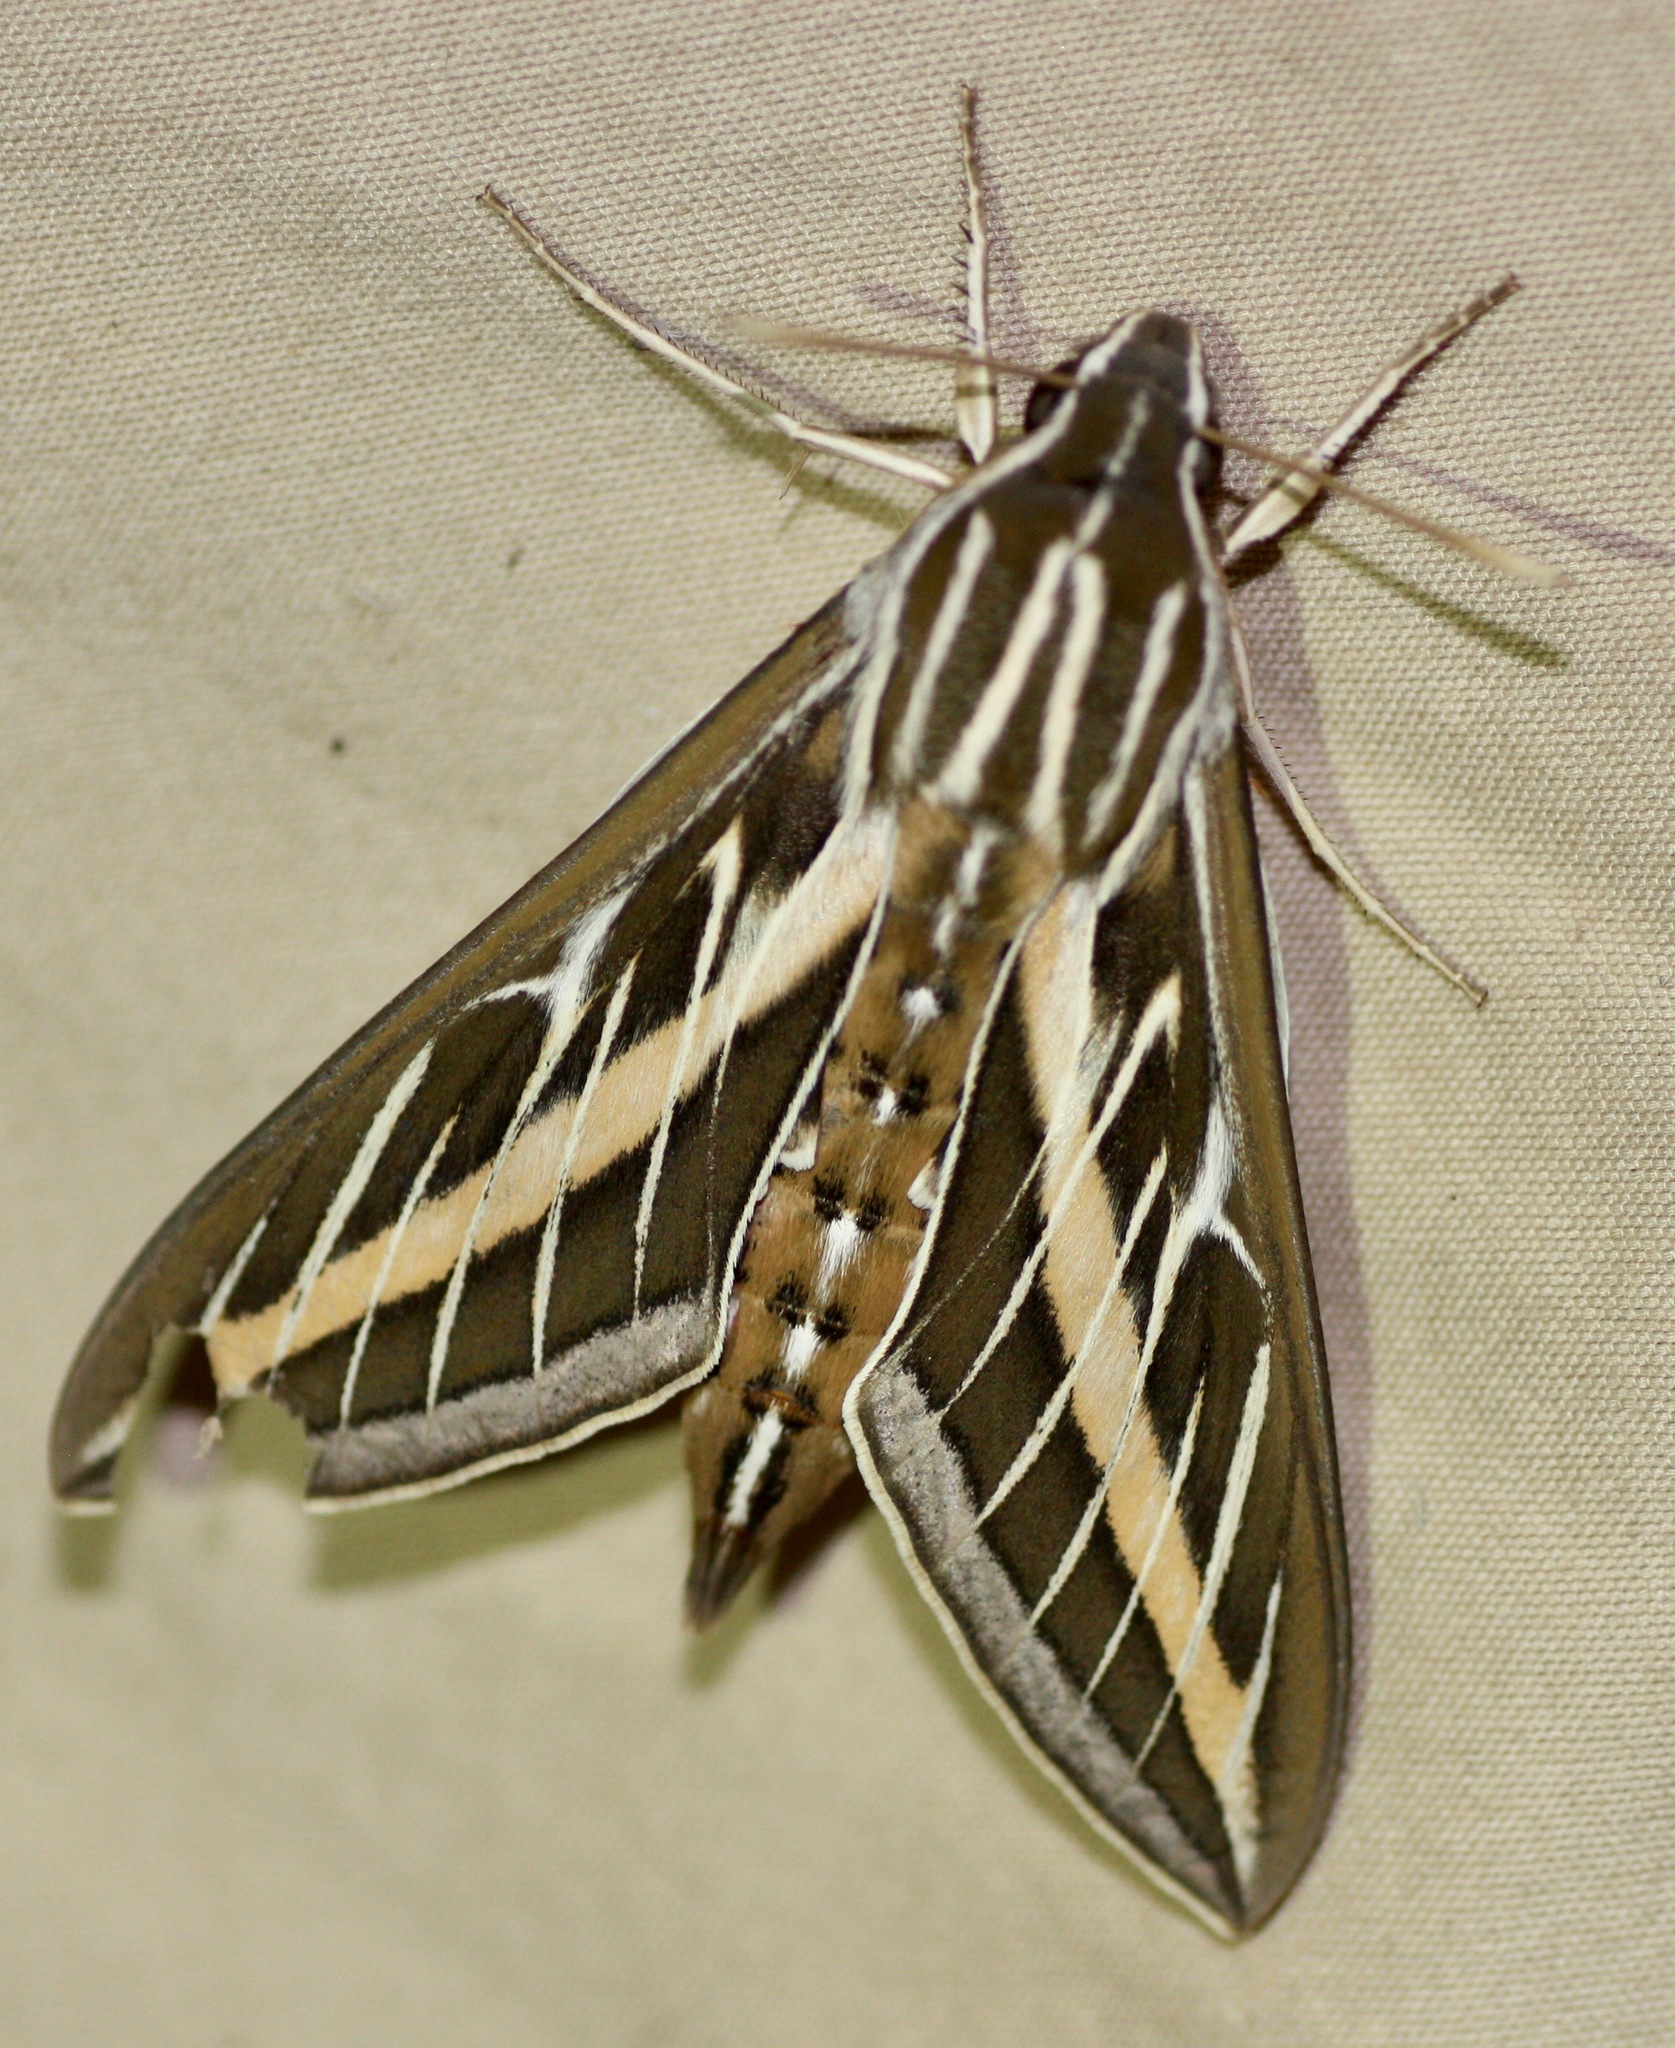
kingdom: Animalia
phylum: Arthropoda
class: Insecta
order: Lepidoptera
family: Sphingidae
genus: Hyles
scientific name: Hyles lineata
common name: White-lined sphinx
